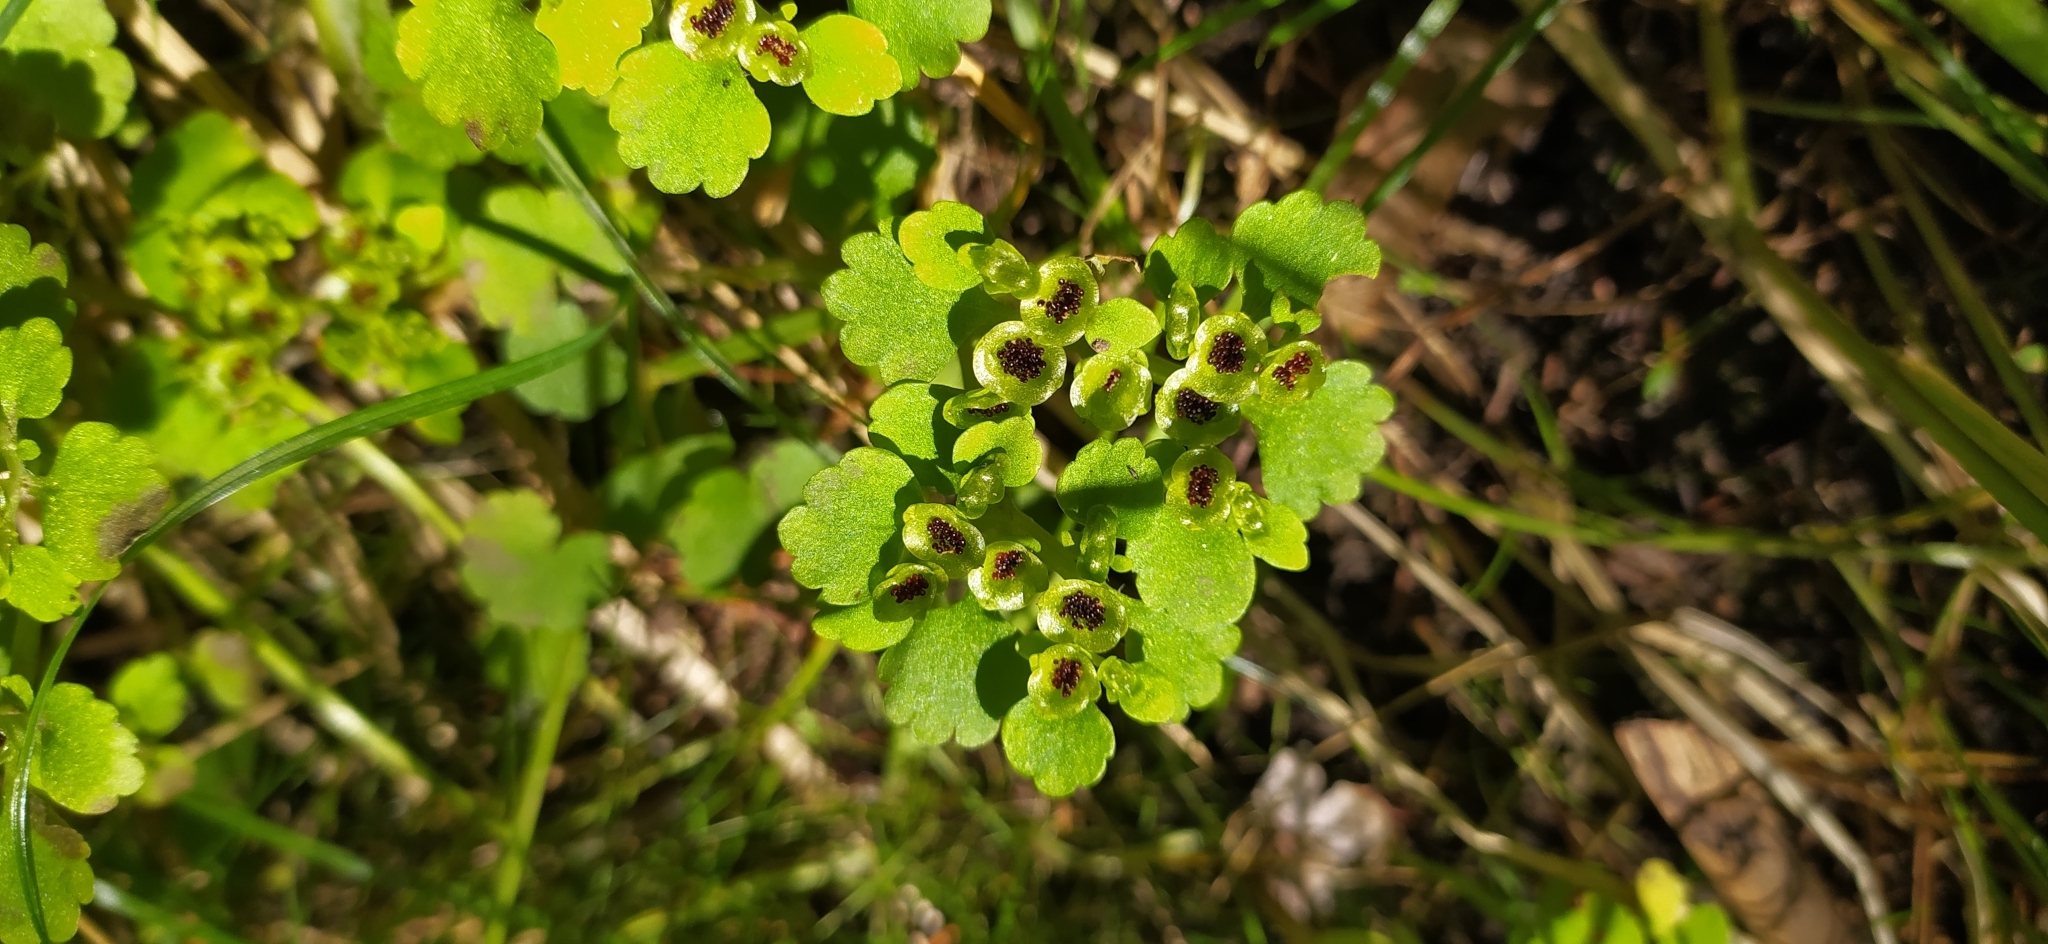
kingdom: Plantae
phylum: Tracheophyta
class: Magnoliopsida
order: Saxifragales
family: Saxifragaceae
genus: Chrysosplenium
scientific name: Chrysosplenium alternifolium
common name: Alternate-leaved golden-saxifrage
